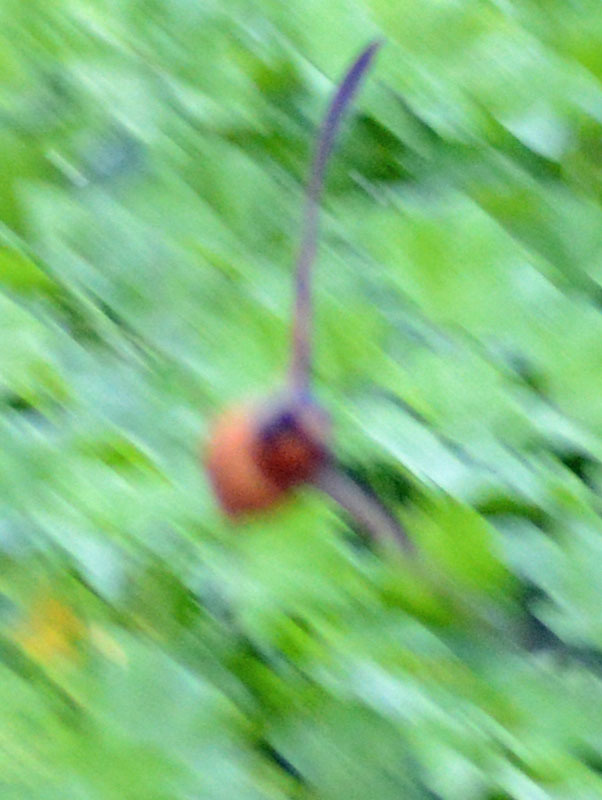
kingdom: Animalia
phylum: Chordata
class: Aves
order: Passeriformes
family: Hirundinidae
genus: Hirundo
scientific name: Hirundo rustica
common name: Barn swallow
